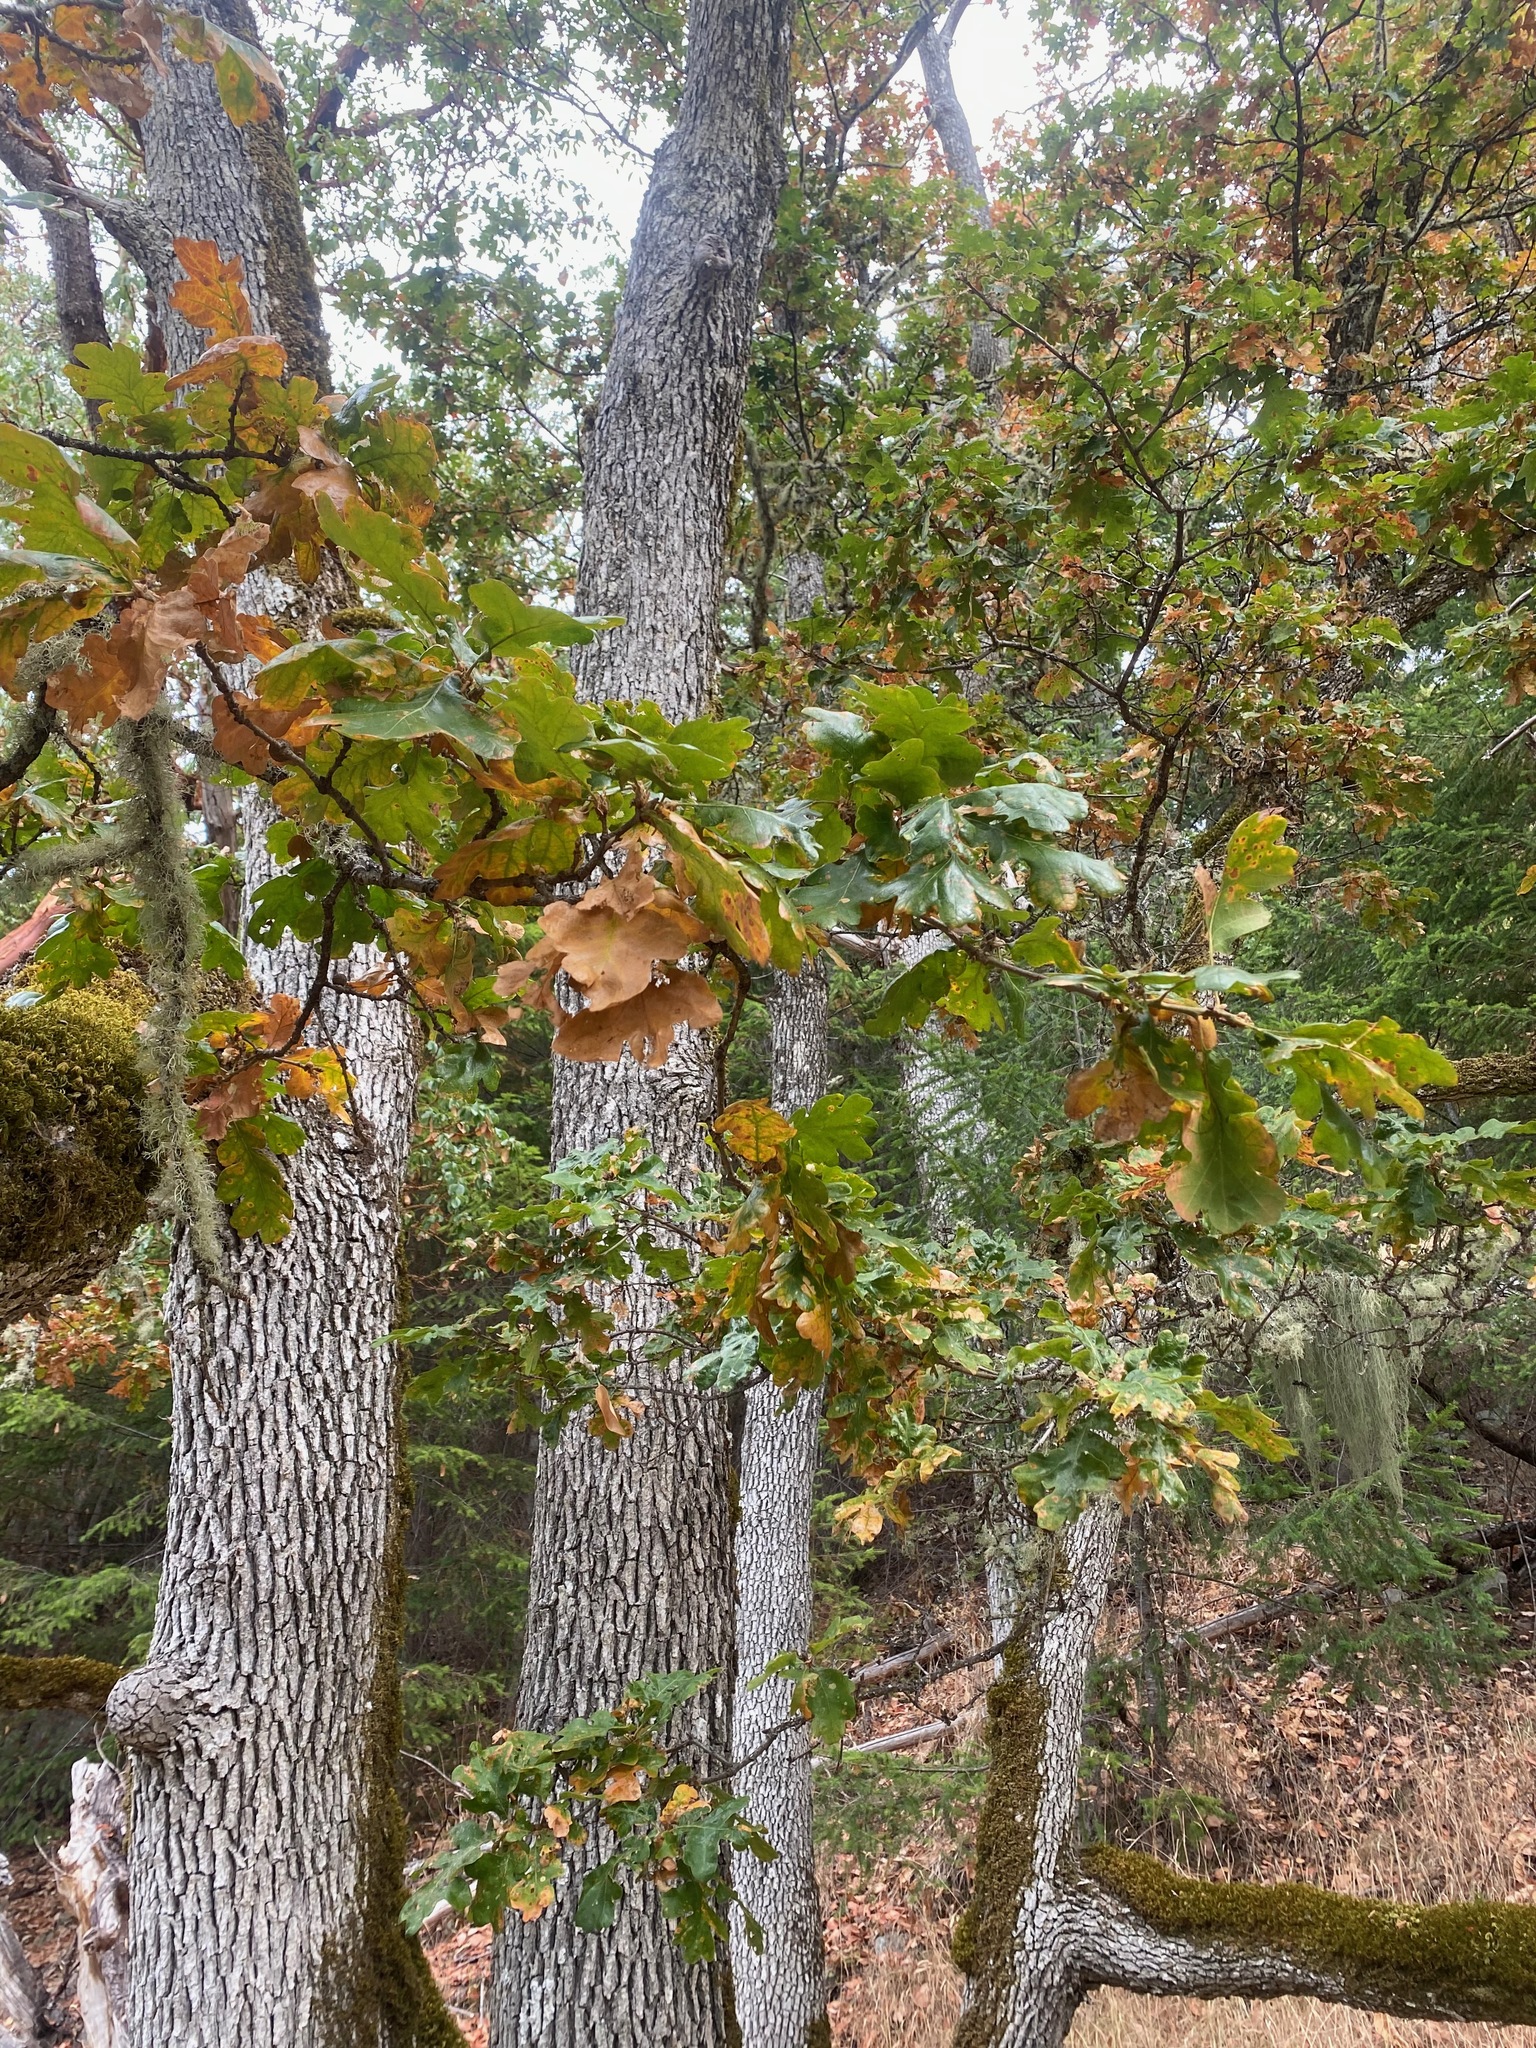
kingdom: Plantae
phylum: Tracheophyta
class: Magnoliopsida
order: Fagales
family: Fagaceae
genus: Quercus
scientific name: Quercus garryana
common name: Garry oak
